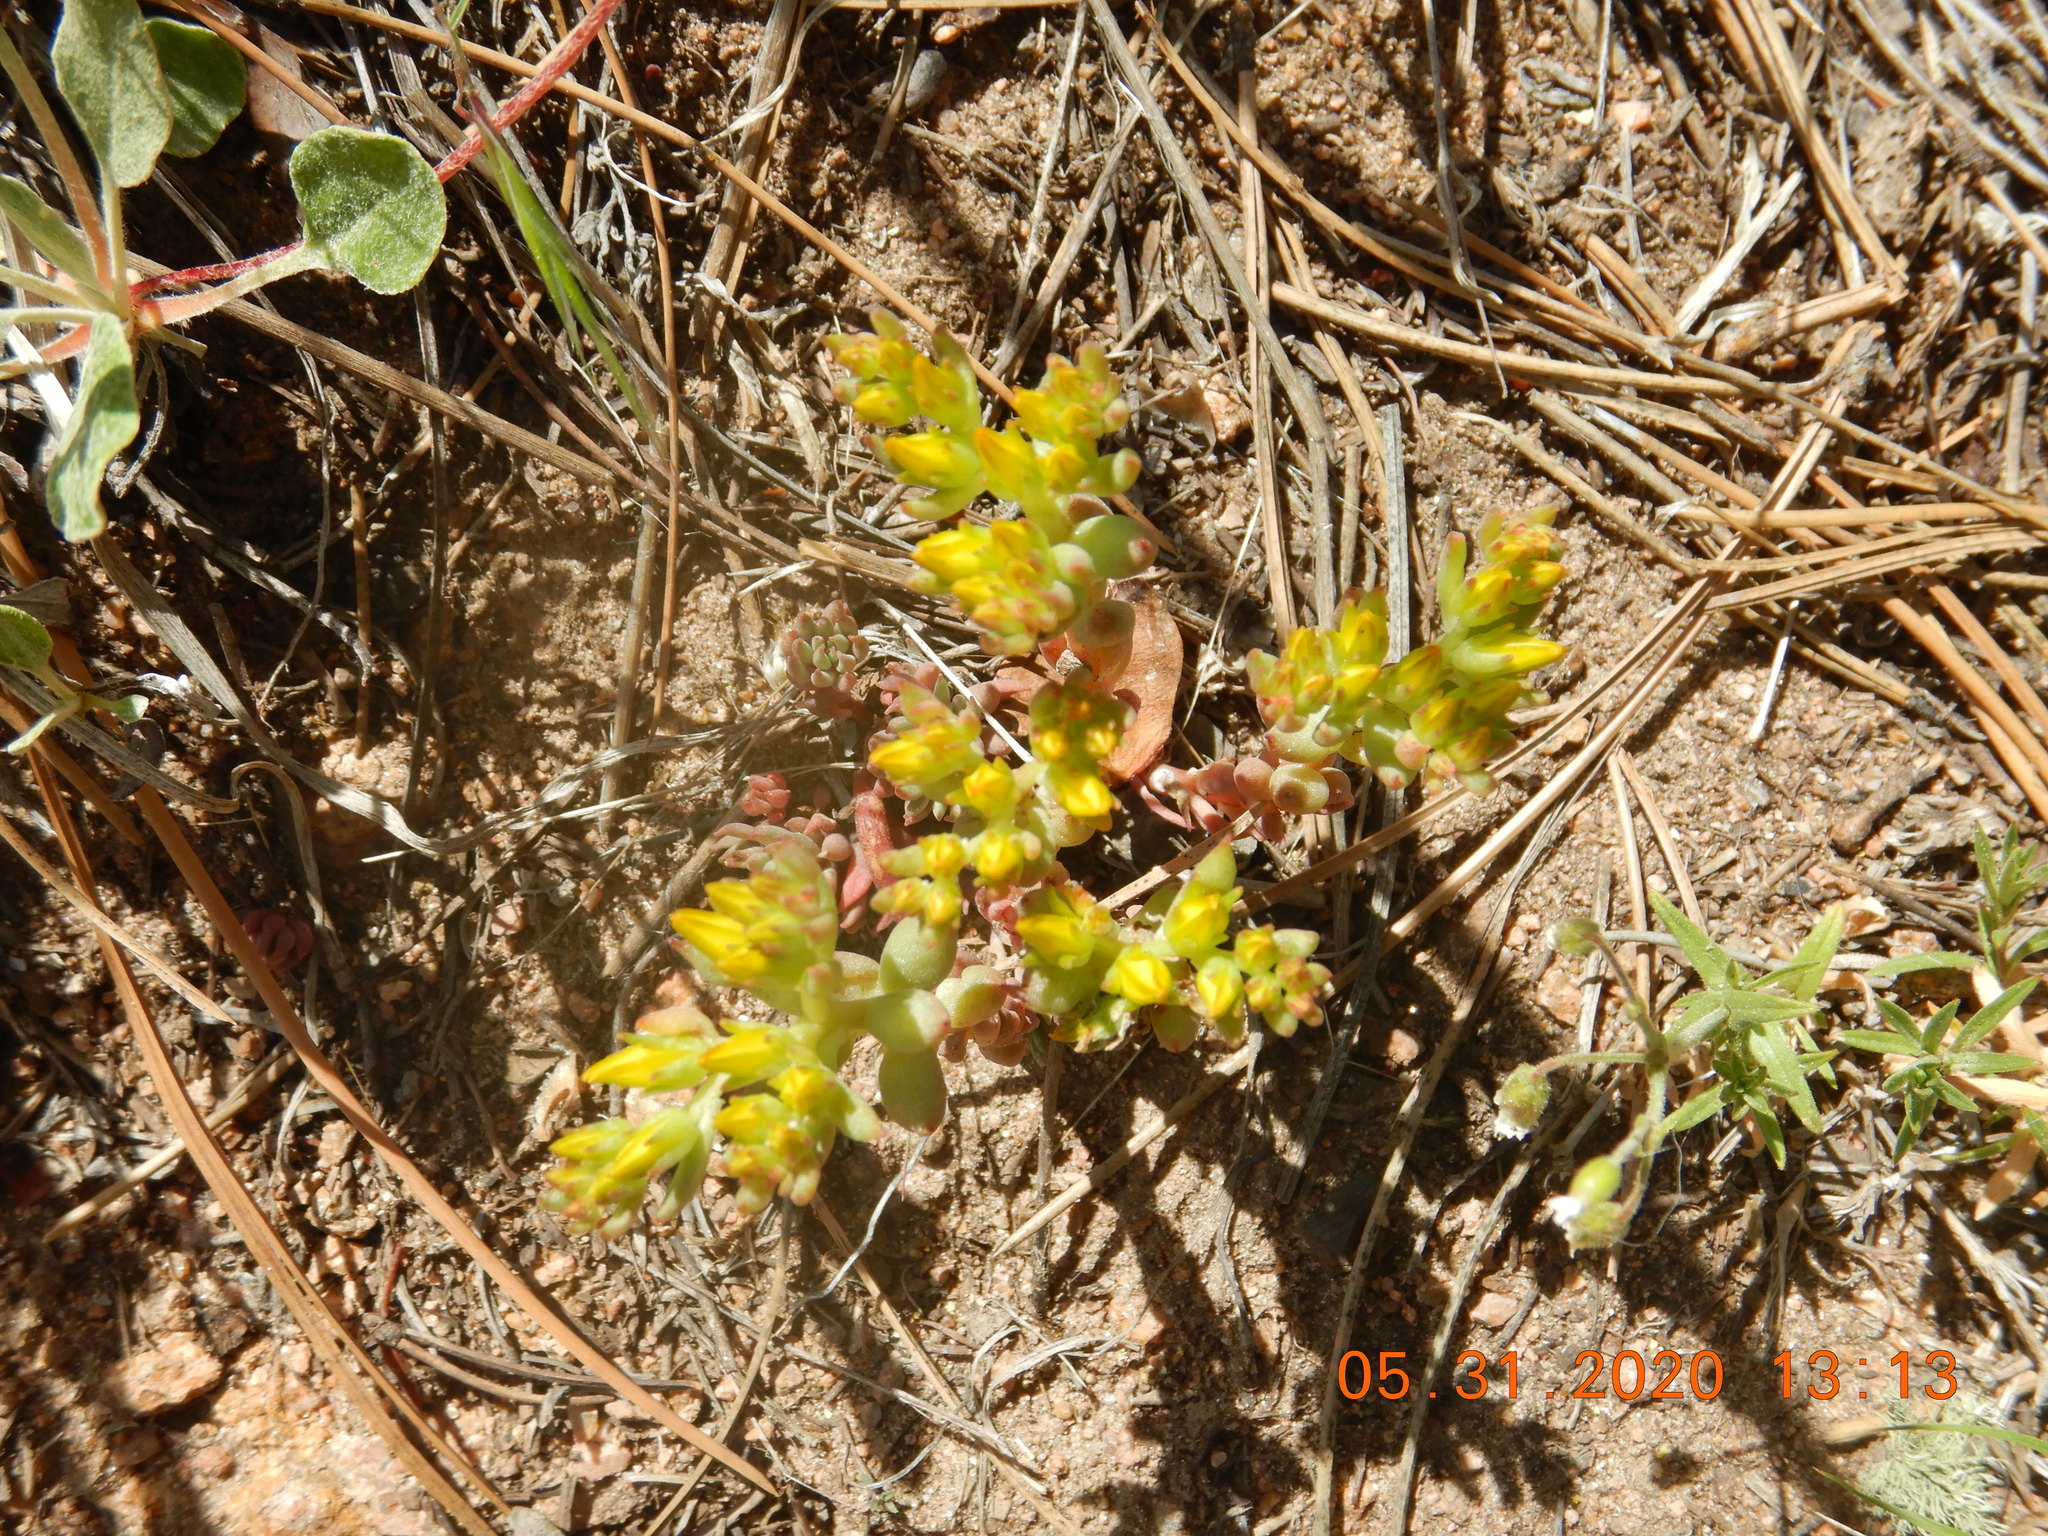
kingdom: Plantae
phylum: Tracheophyta
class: Magnoliopsida
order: Saxifragales
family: Crassulaceae
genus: Sedum
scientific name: Sedum lanceolatum
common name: Common stonecrop
